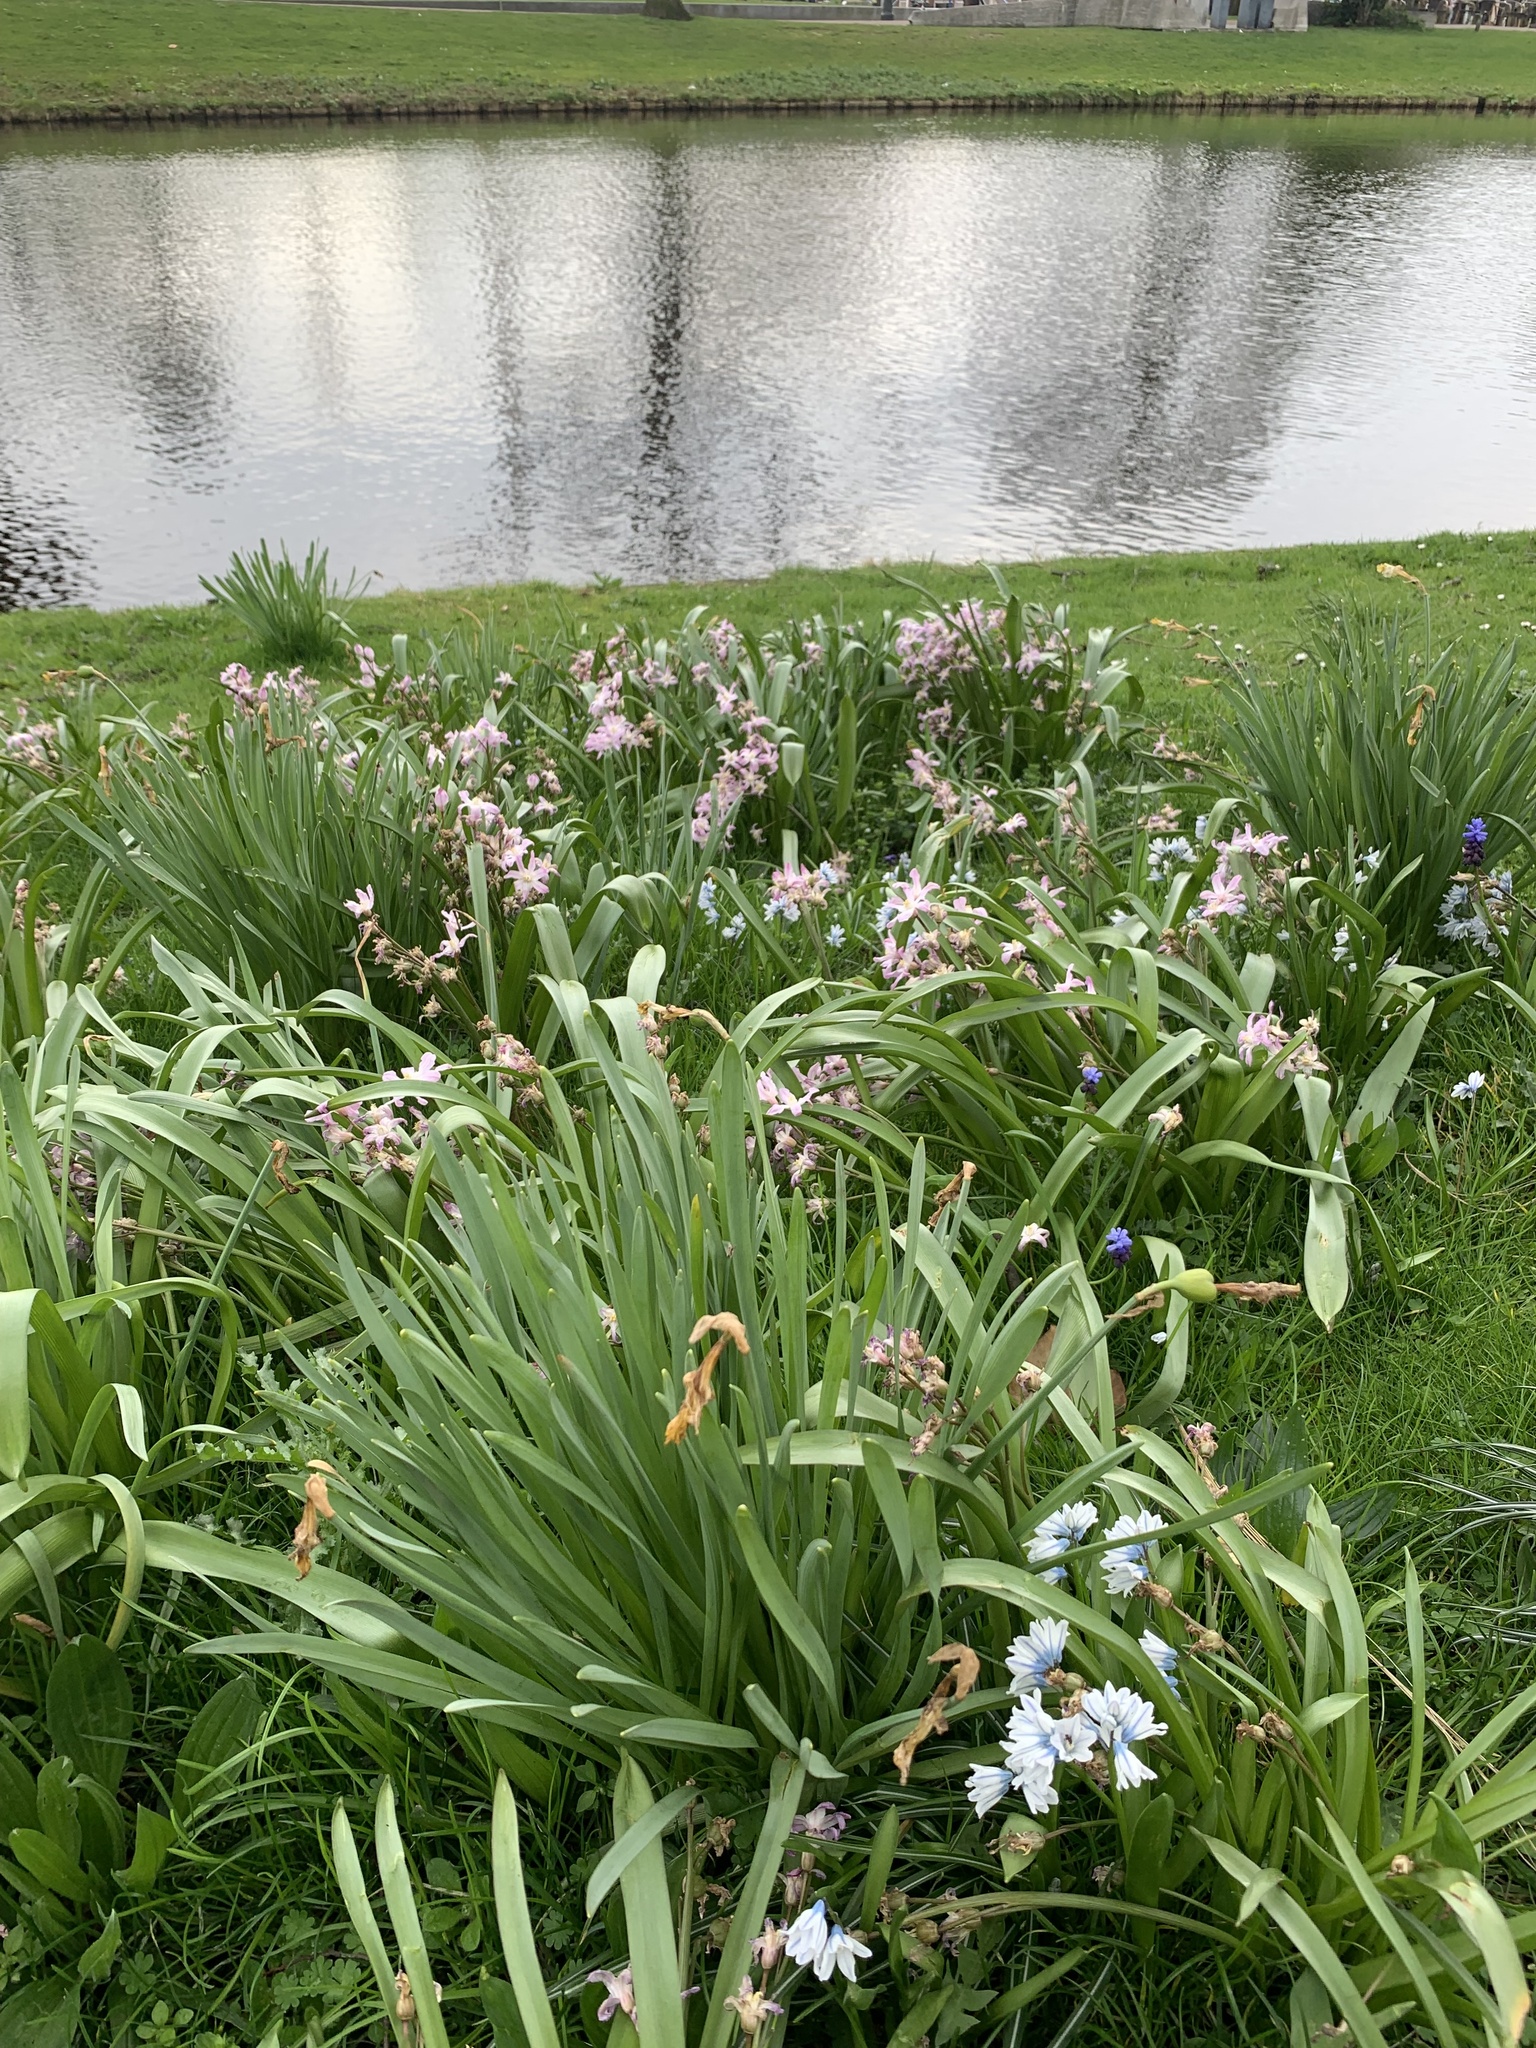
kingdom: Plantae
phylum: Tracheophyta
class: Liliopsida
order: Asparagales
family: Asparagaceae
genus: Puschkinia
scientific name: Puschkinia scilloides
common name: Striped squill
